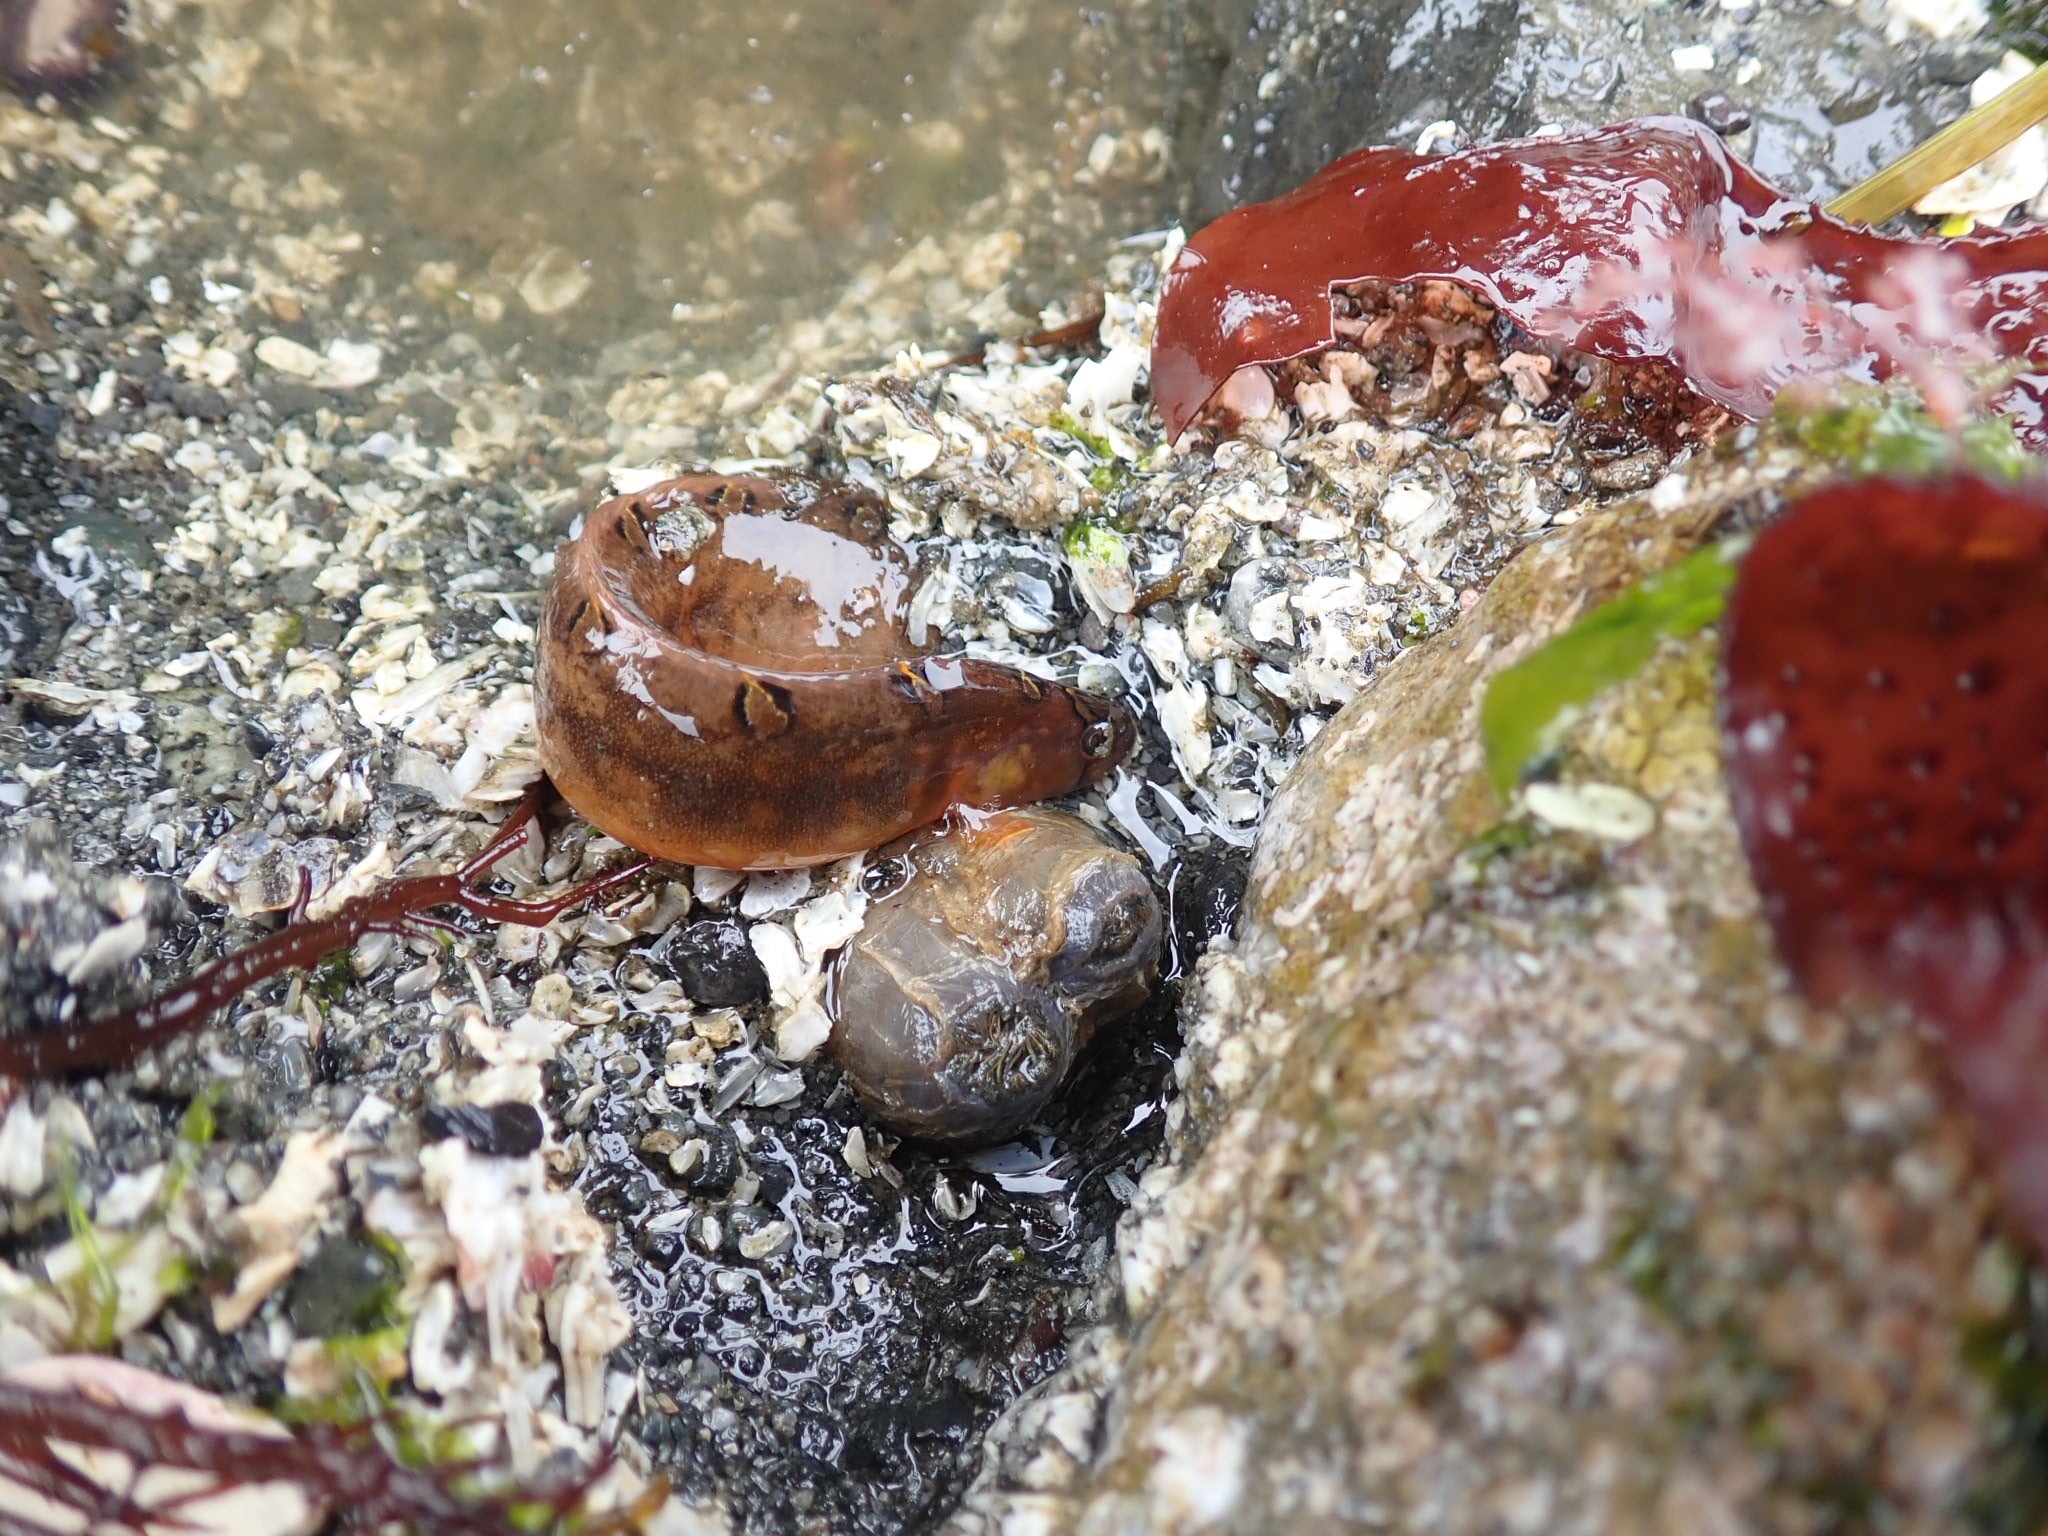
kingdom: Animalia
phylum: Chordata
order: Perciformes
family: Pholidae
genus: Pholis
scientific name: Pholis laeta
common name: Crescent gunnel
